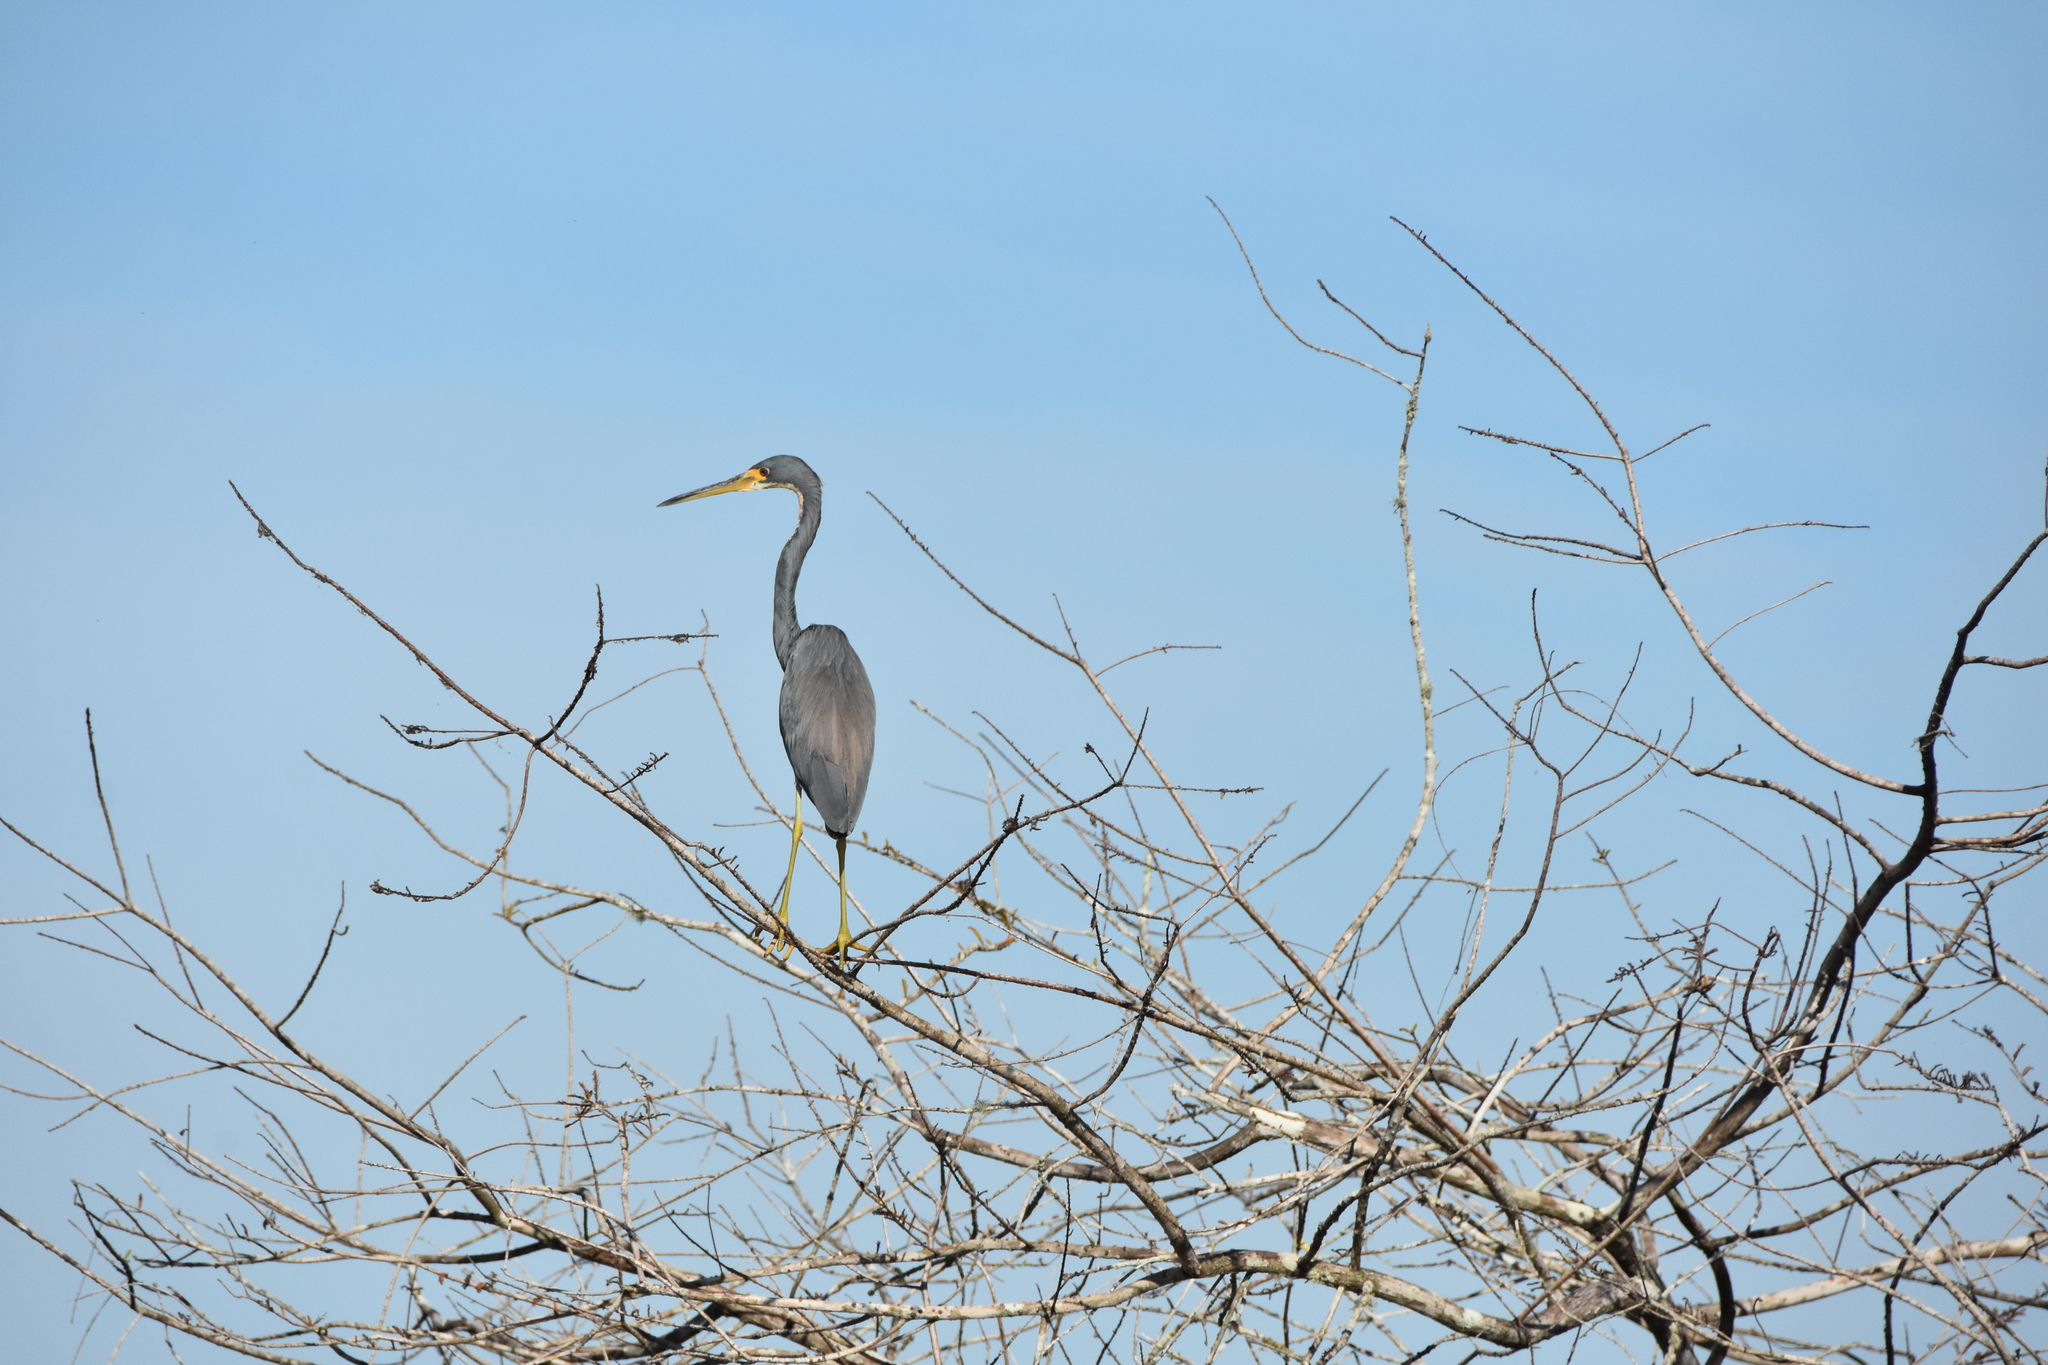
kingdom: Animalia
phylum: Chordata
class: Aves
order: Pelecaniformes
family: Ardeidae
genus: Egretta
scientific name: Egretta tricolor
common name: Tricolored heron
